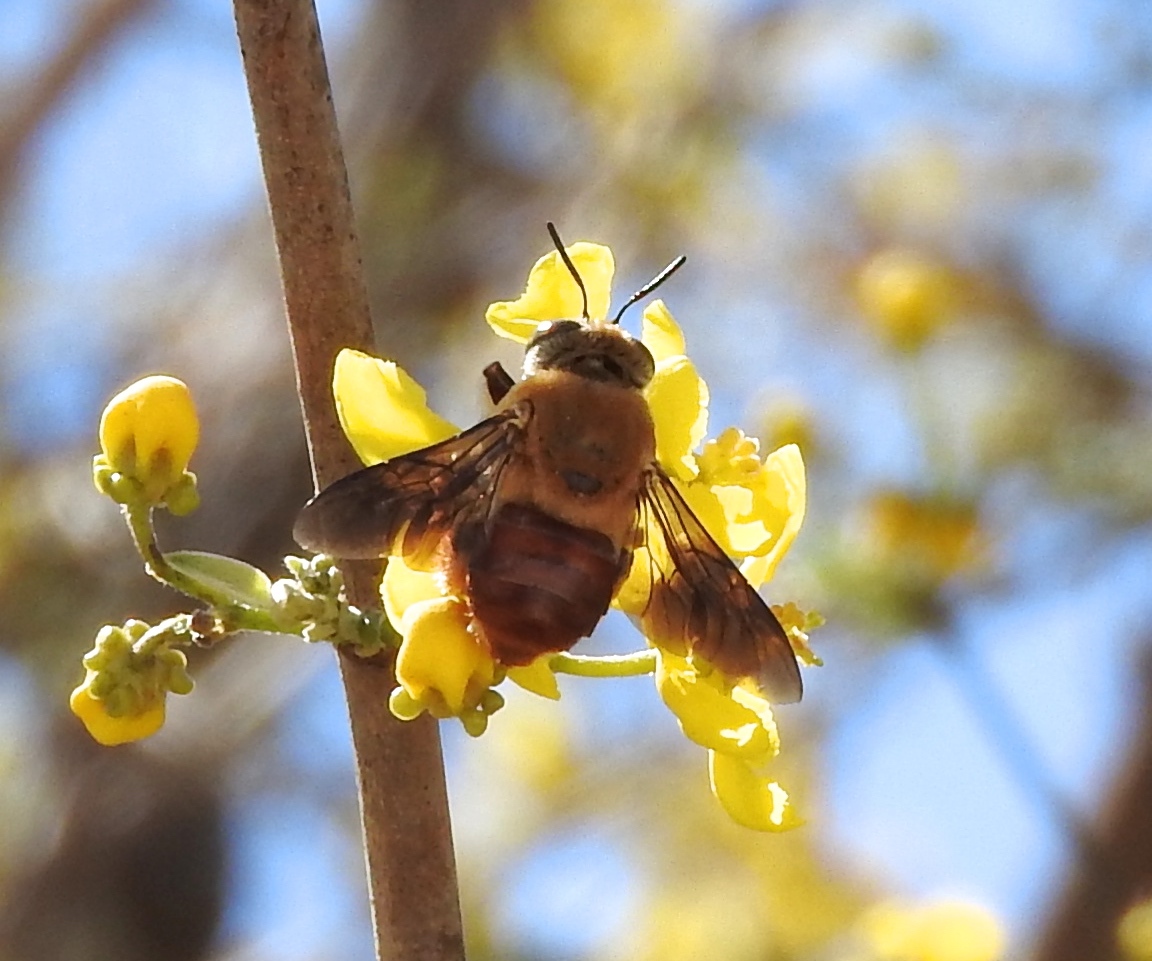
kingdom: Animalia
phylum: Arthropoda
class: Insecta
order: Hymenoptera
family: Apidae
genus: Centris
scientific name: Centris
